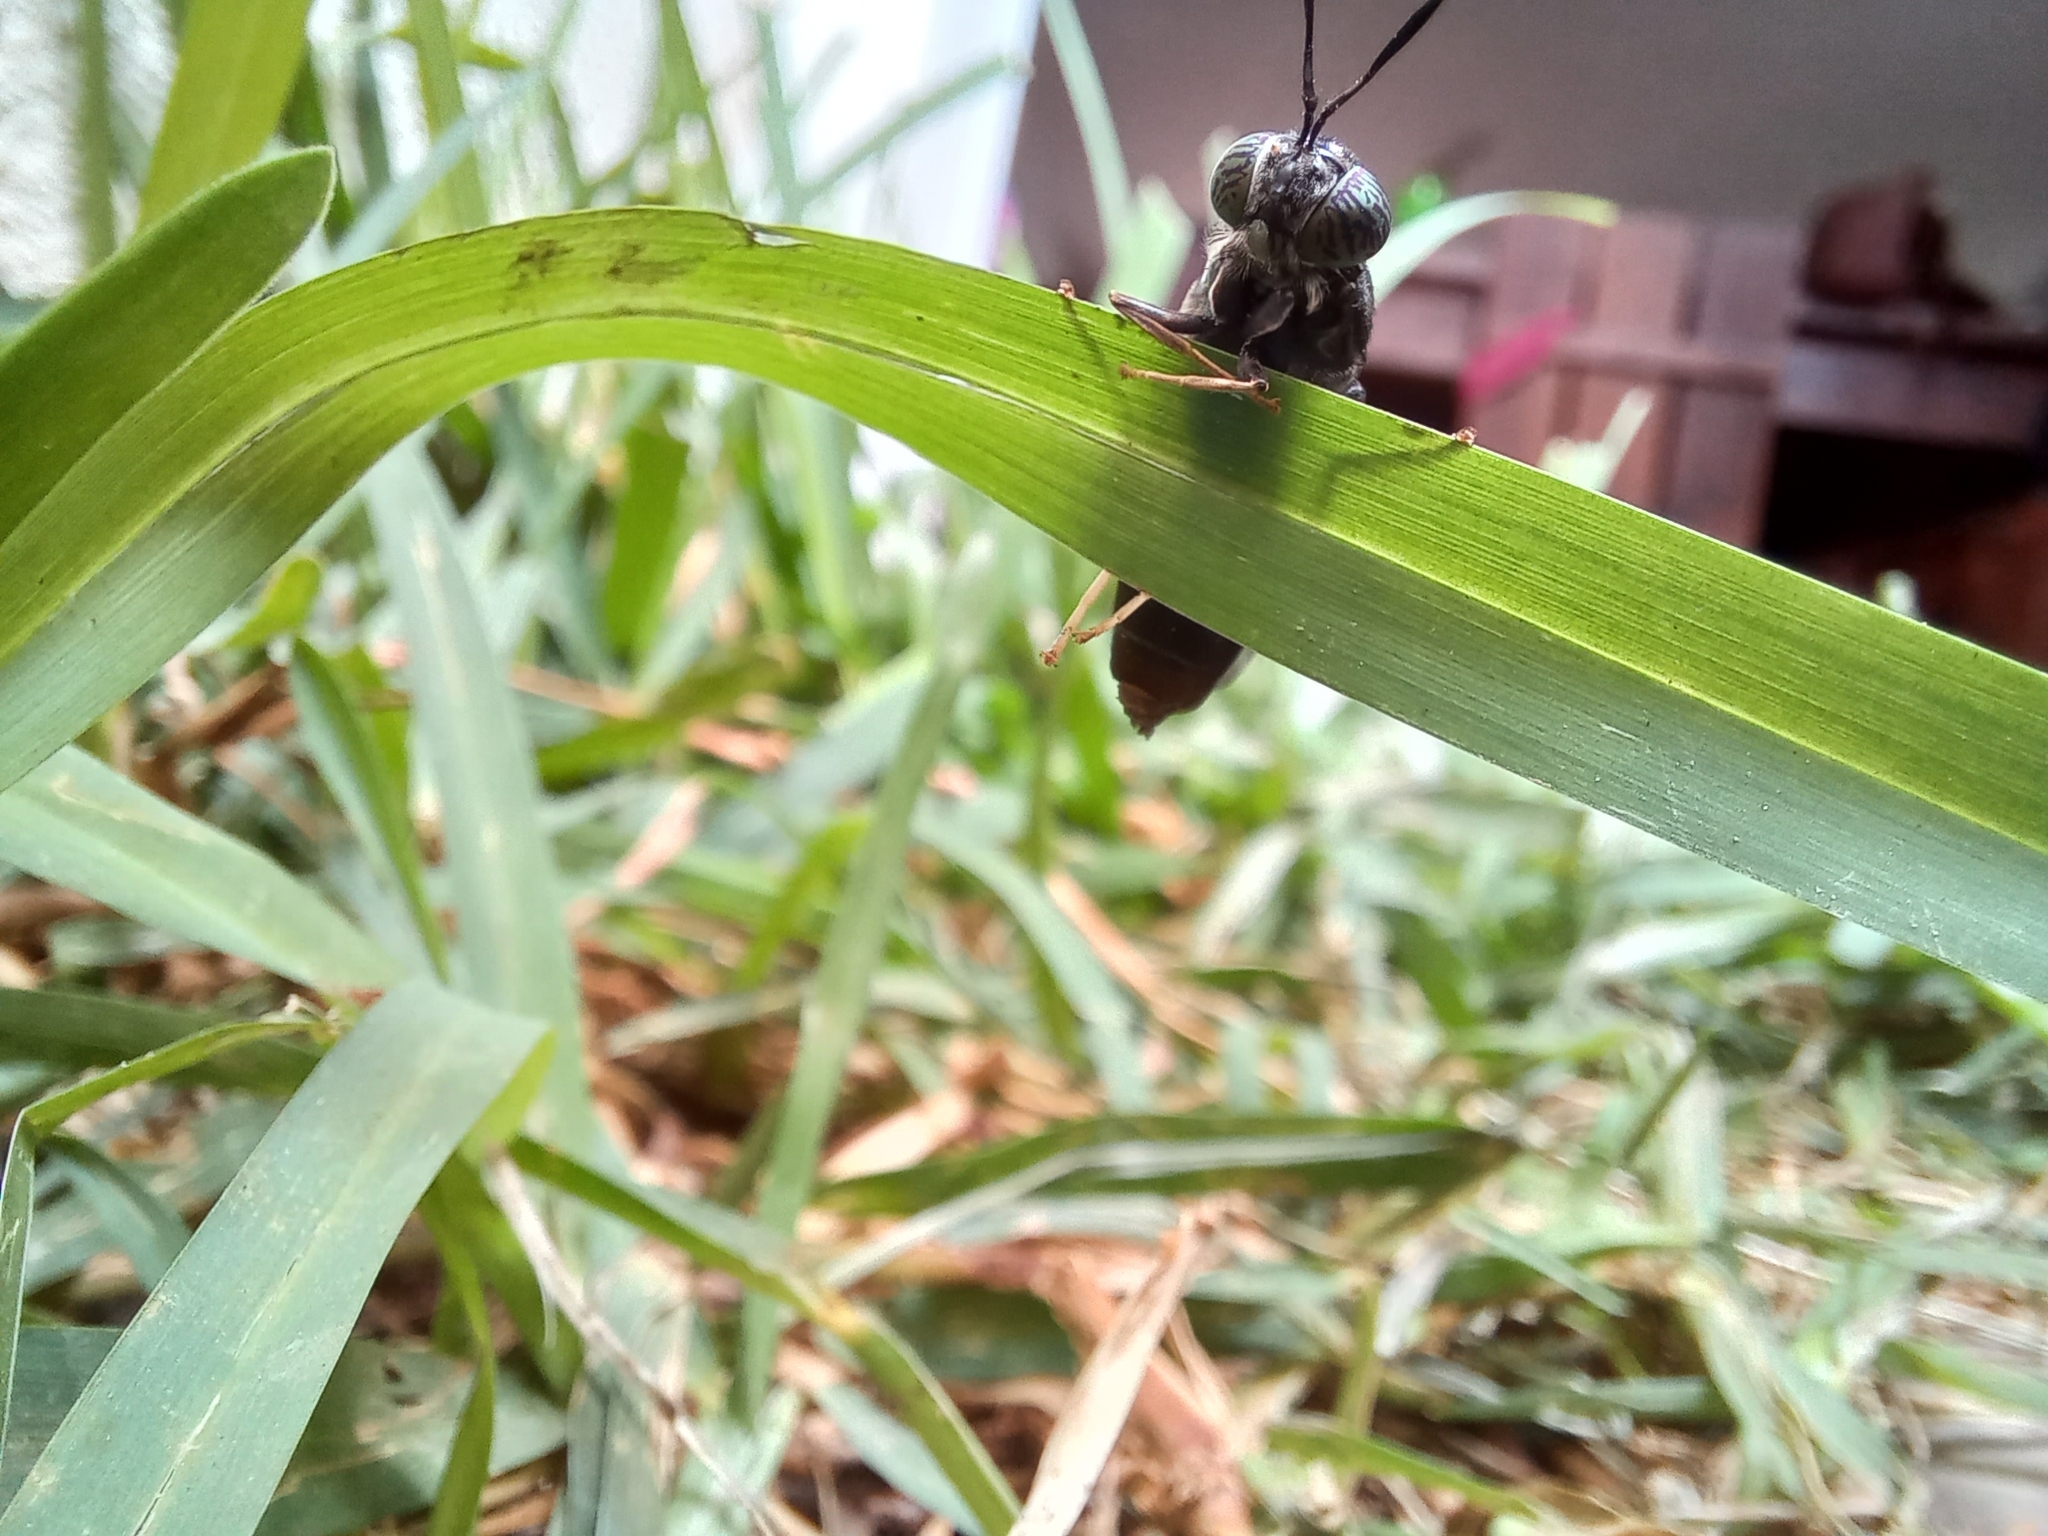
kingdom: Animalia
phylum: Arthropoda
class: Insecta
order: Diptera
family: Stratiomyidae
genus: Hermetia
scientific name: Hermetia illucens
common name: Black soldier fly
